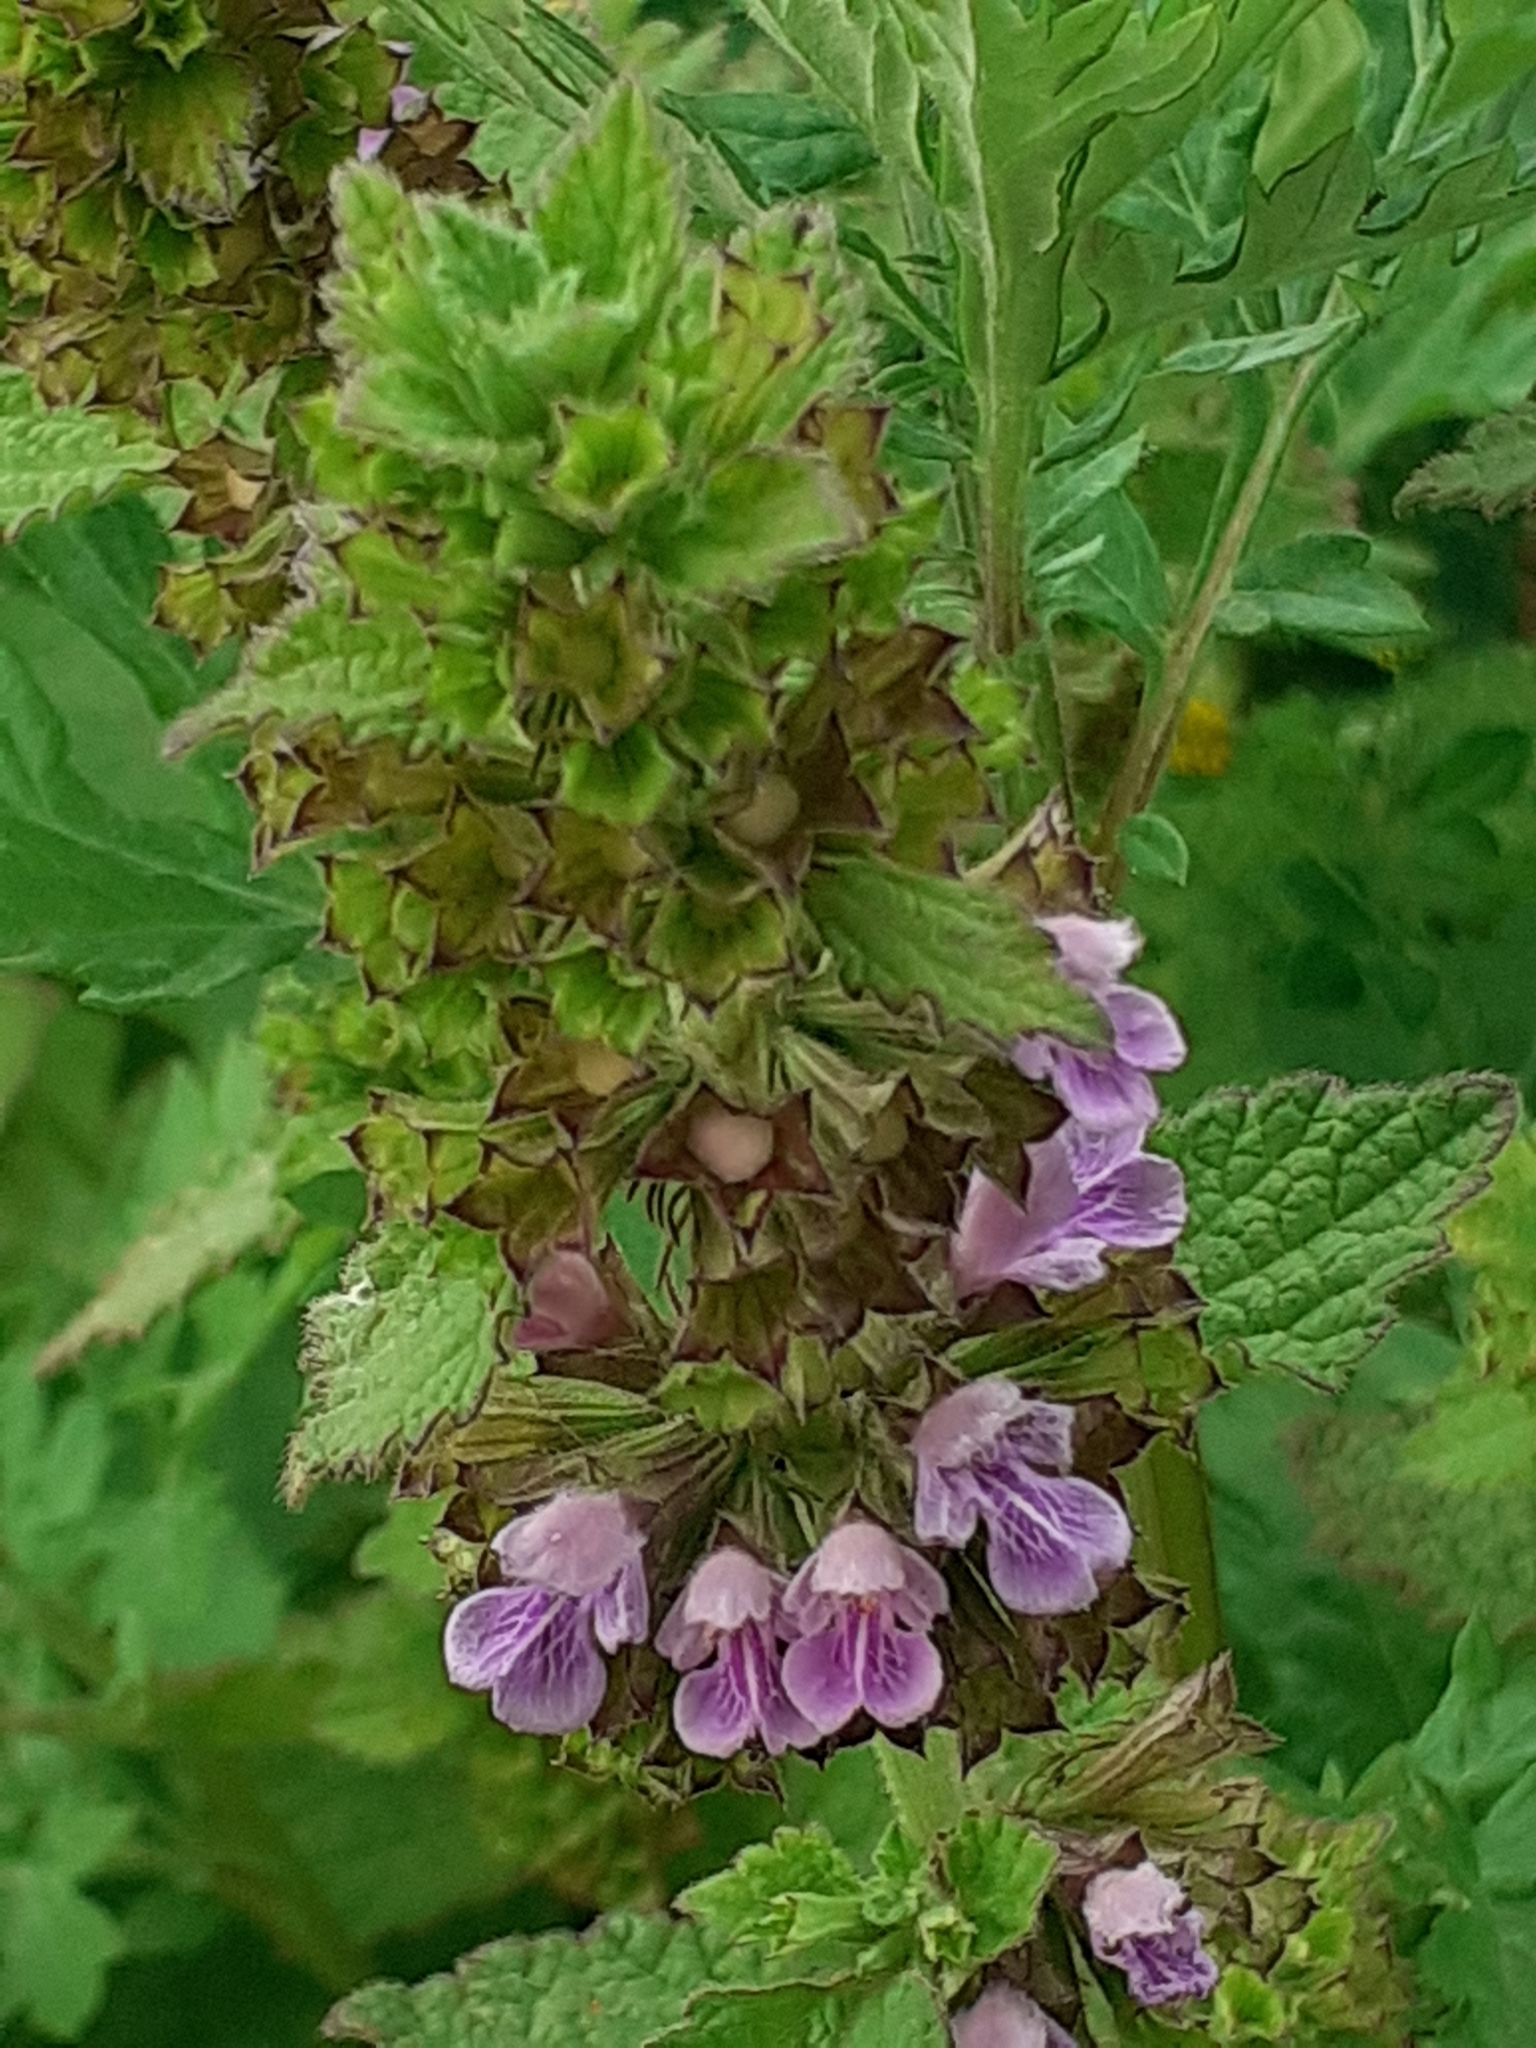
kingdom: Plantae
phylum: Tracheophyta
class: Magnoliopsida
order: Lamiales
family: Lamiaceae
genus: Ballota
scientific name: Ballota nigra
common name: Black horehound
